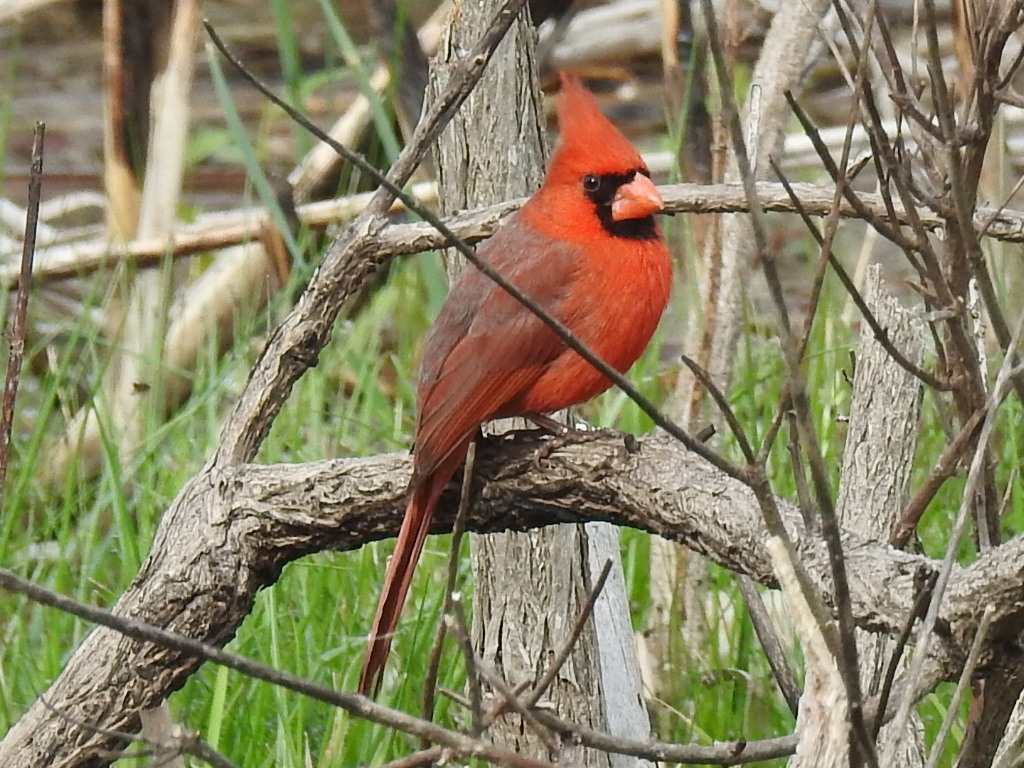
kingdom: Animalia
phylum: Chordata
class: Aves
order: Passeriformes
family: Cardinalidae
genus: Cardinalis
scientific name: Cardinalis cardinalis
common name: Northern cardinal
